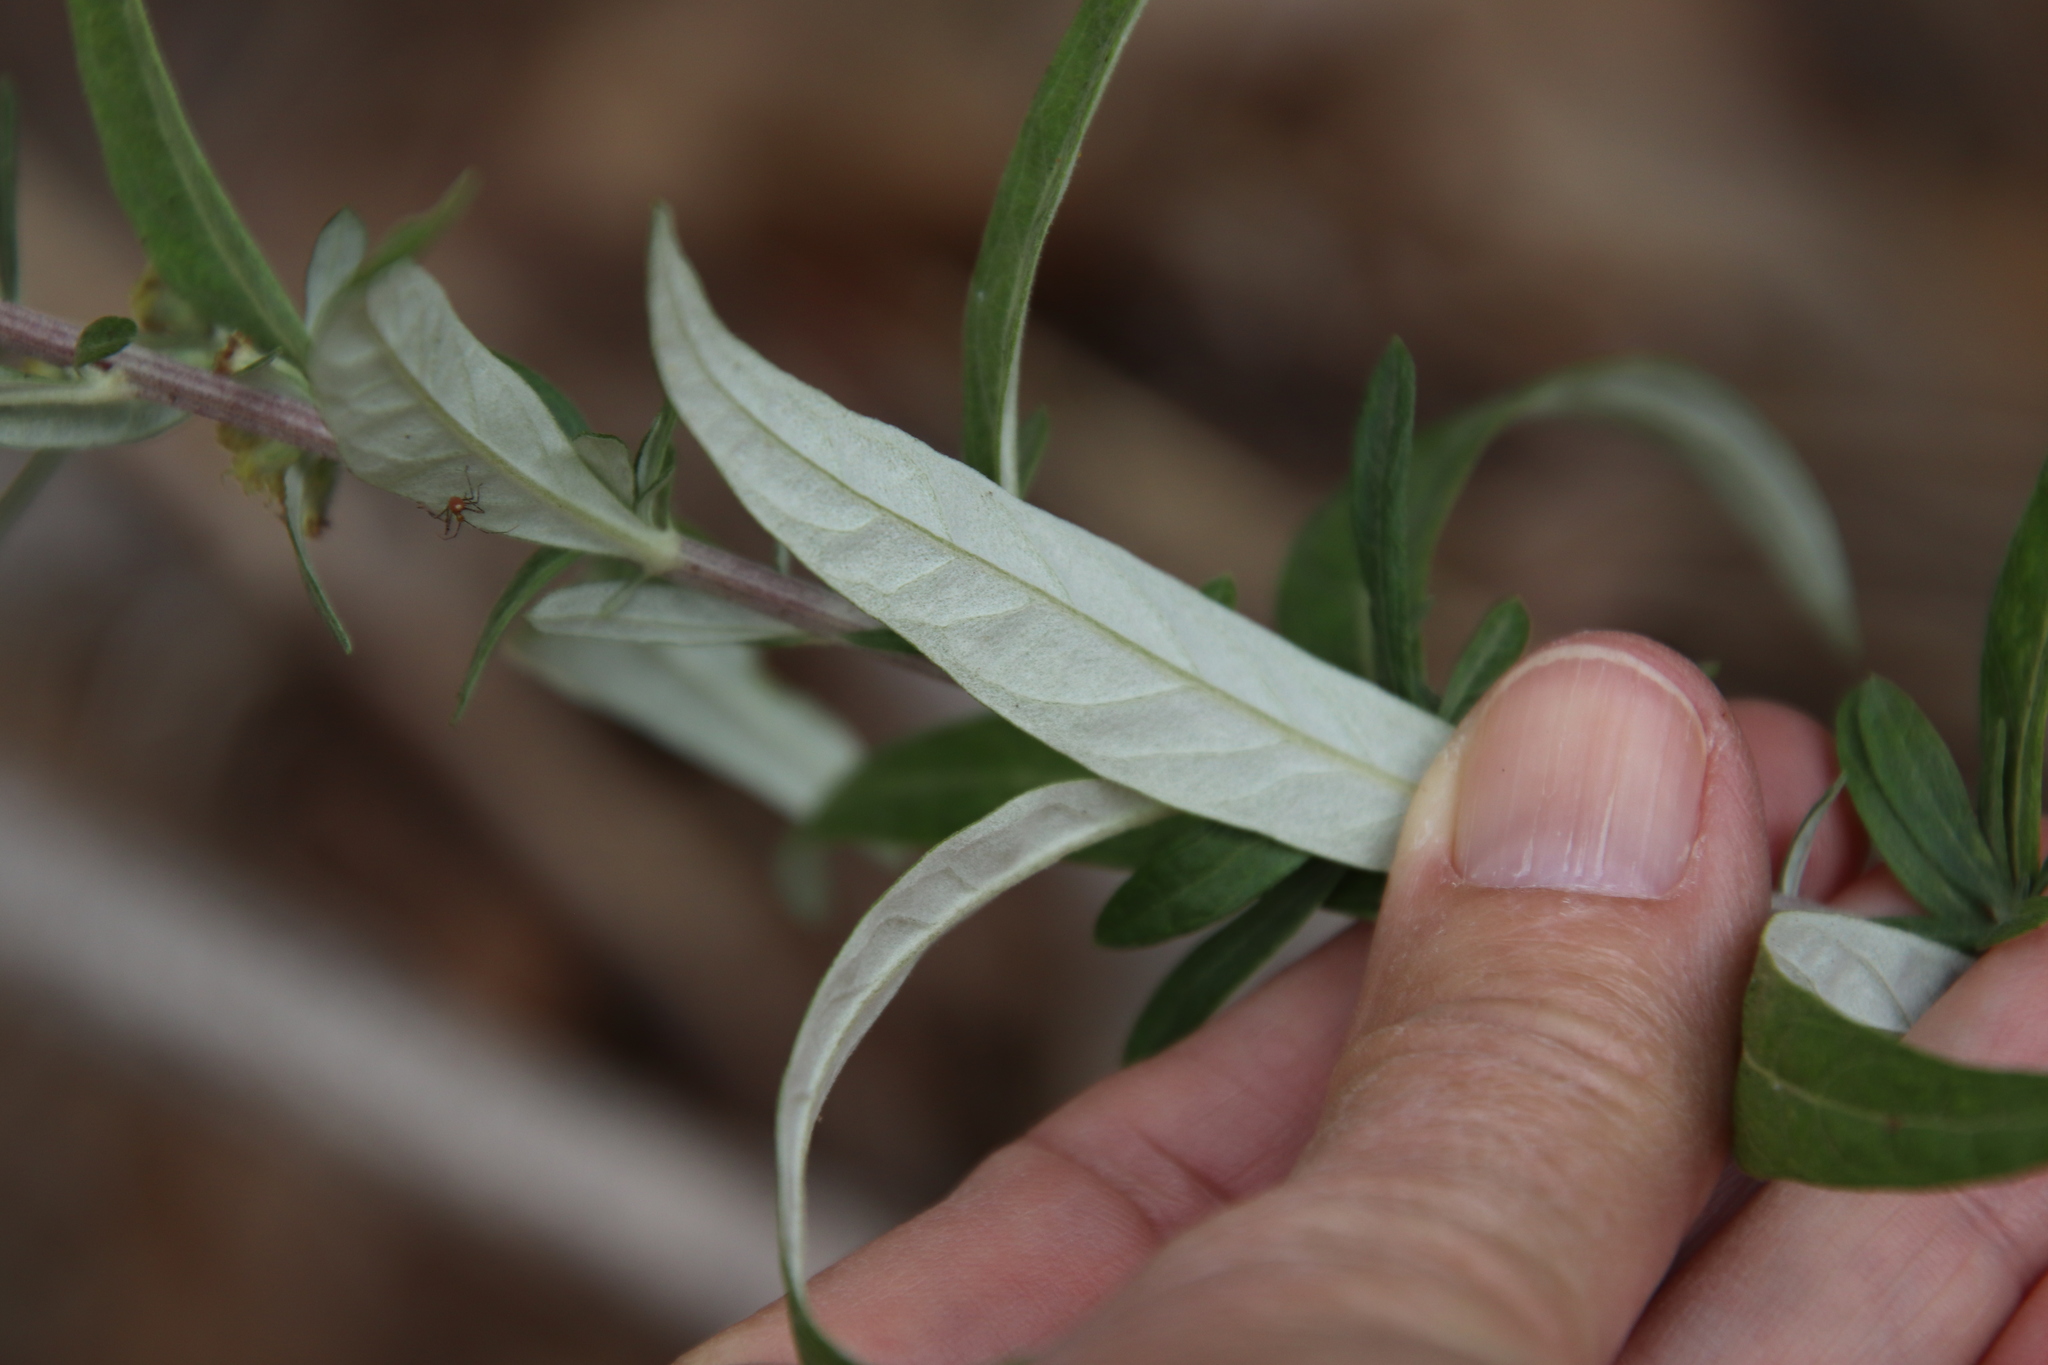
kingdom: Plantae
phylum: Tracheophyta
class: Magnoliopsida
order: Asterales
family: Asteraceae
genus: Artemisia
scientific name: Artemisia douglasiana
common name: Northwest mugwort
